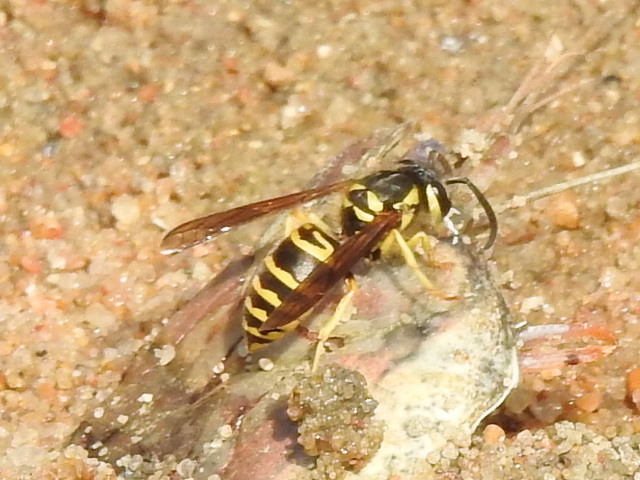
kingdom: Animalia
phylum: Arthropoda
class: Insecta
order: Hymenoptera
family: Vespidae
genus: Vespula
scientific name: Vespula maculifrons
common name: Eastern yellowjacket
